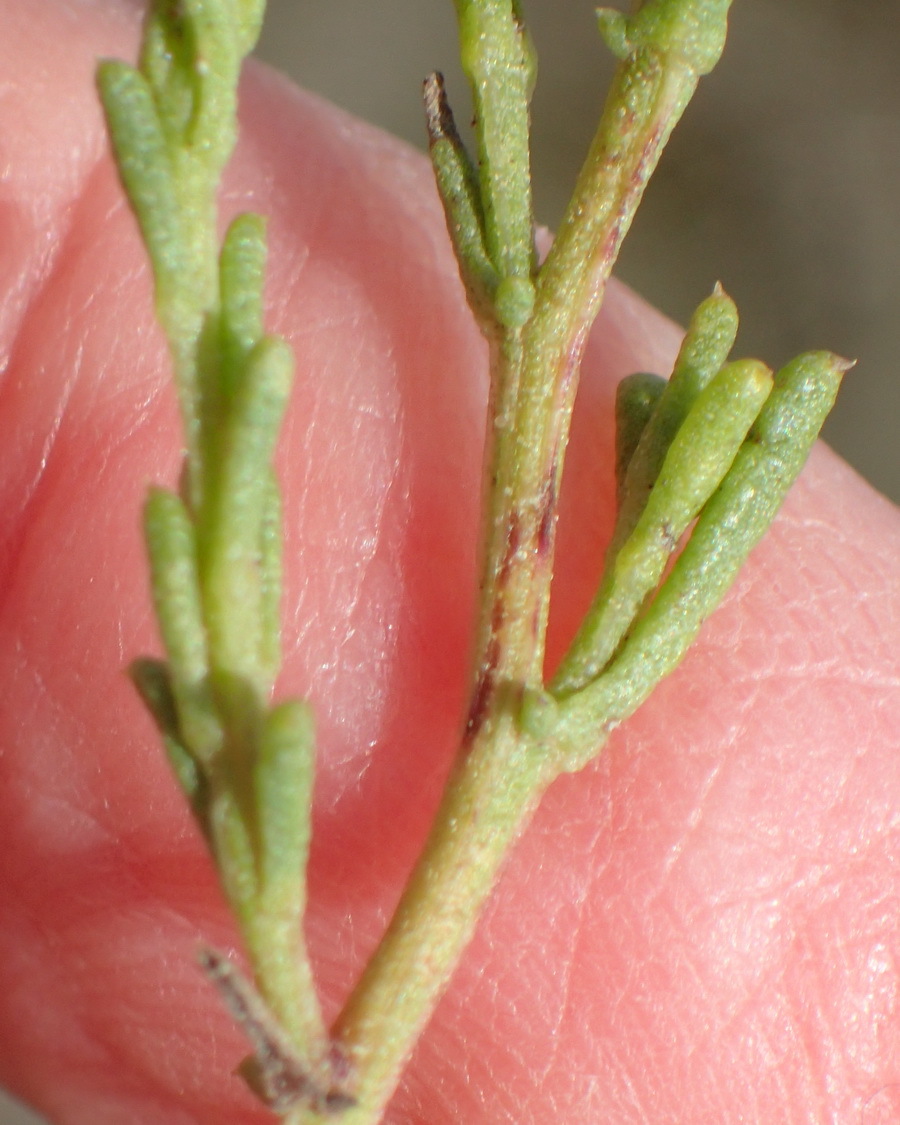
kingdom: Plantae
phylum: Tracheophyta
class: Magnoliopsida
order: Asterales
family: Asteraceae
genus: Cymbopappus
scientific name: Cymbopappus adenosolen
